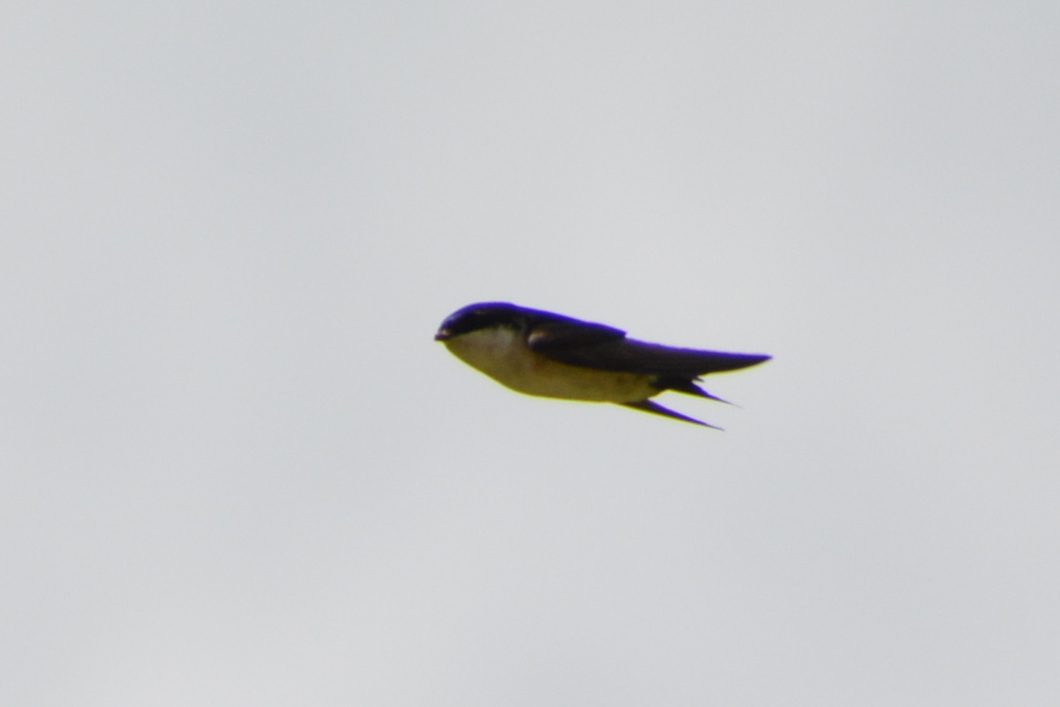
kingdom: Animalia
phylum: Chordata
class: Aves
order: Passeriformes
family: Hirundinidae
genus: Delichon
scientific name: Delichon urbicum
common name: Common house martin
